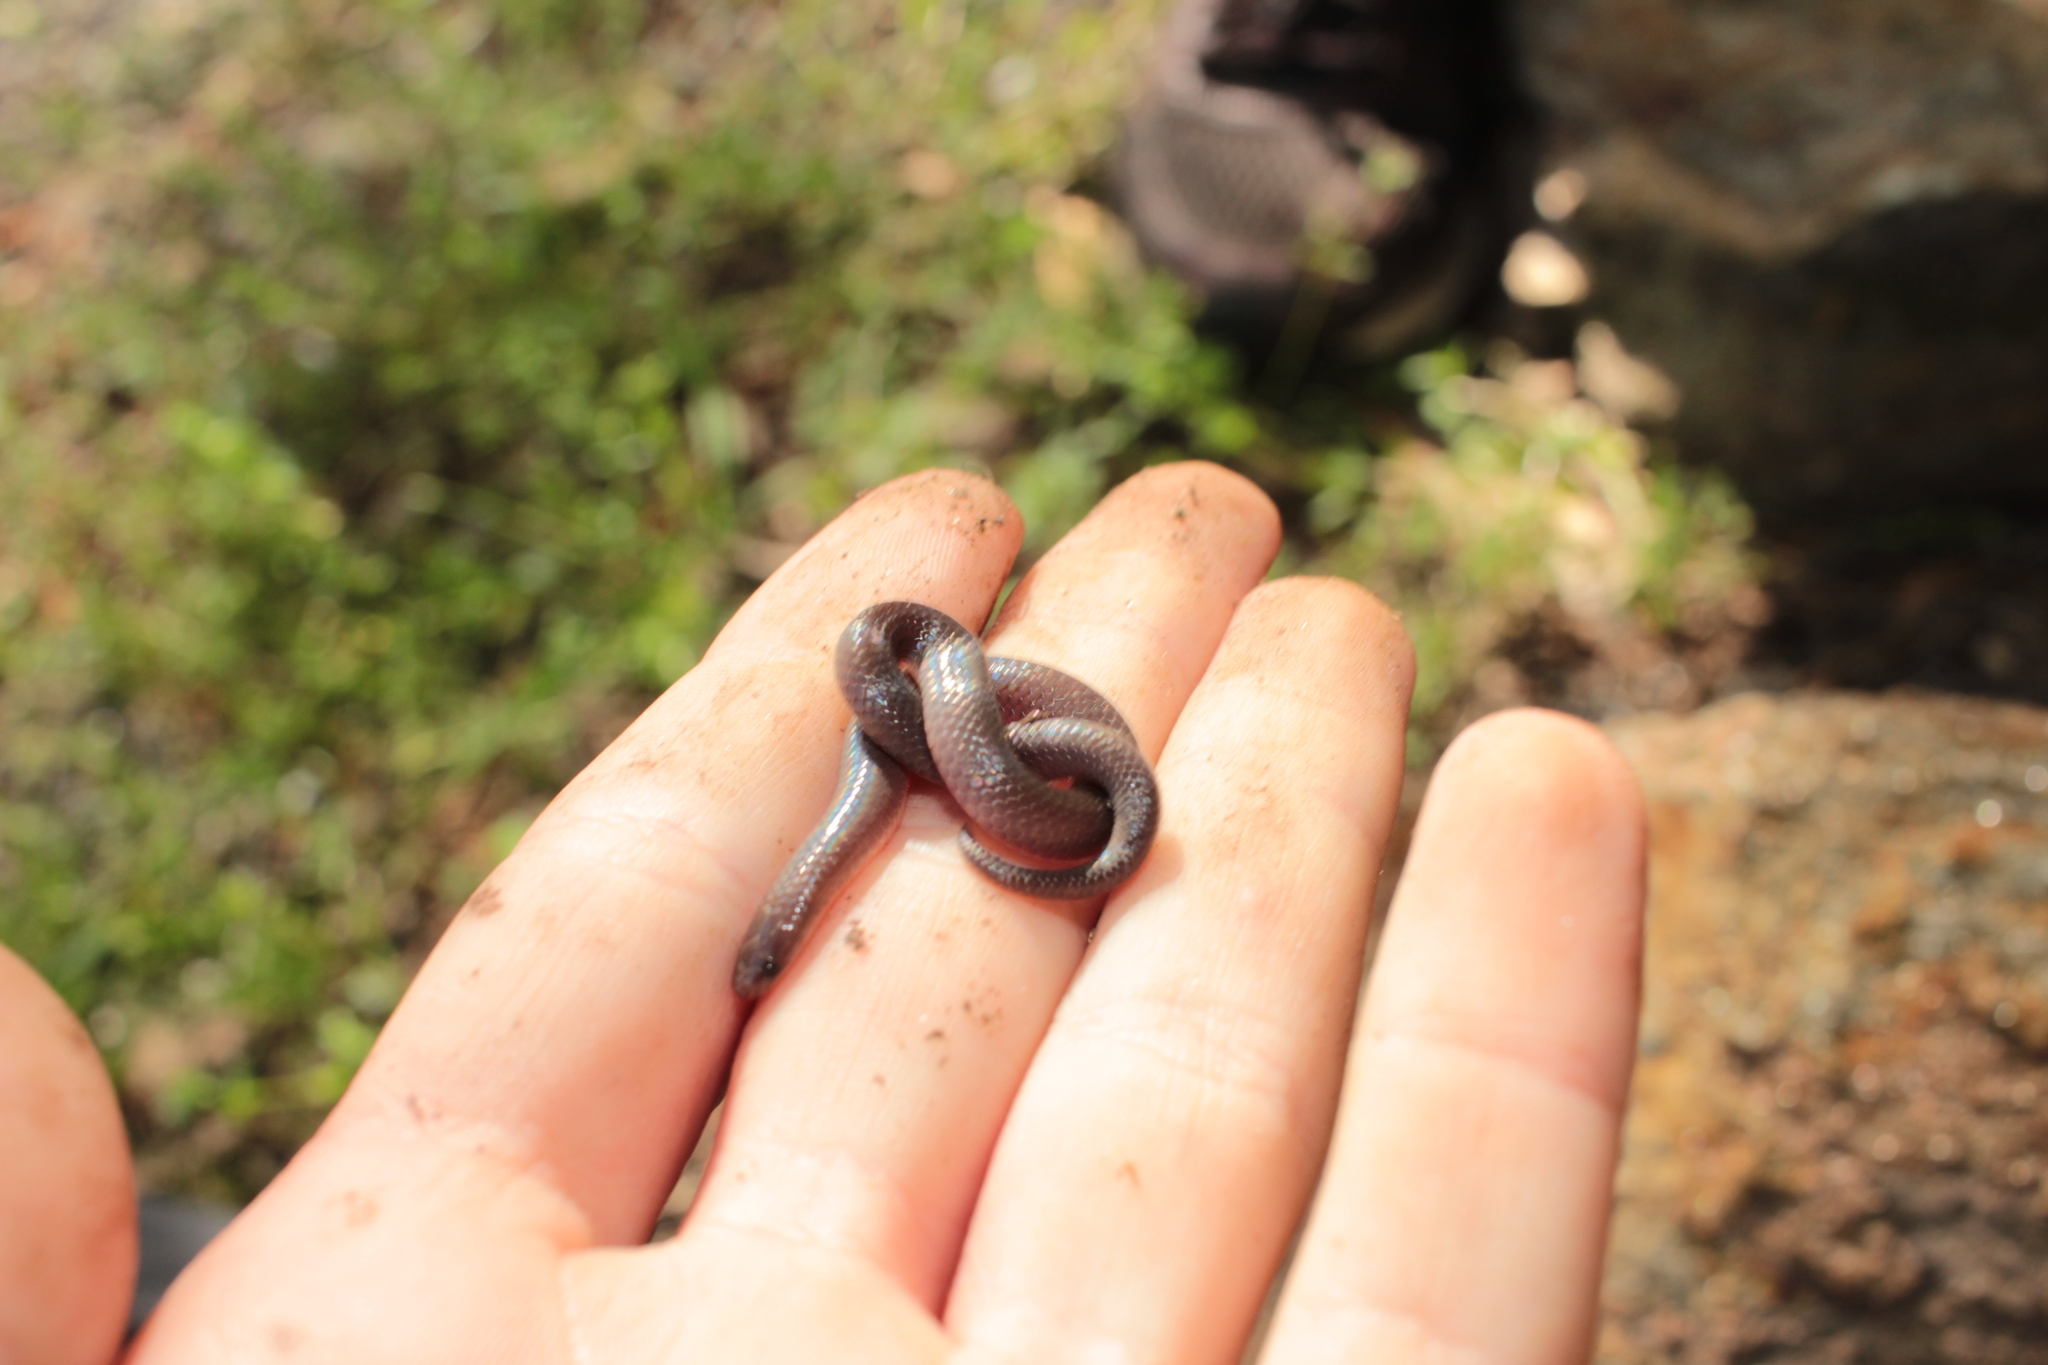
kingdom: Animalia
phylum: Chordata
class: Squamata
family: Colubridae
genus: Carphophis
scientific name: Carphophis amoenus
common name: Eastern worm snake
